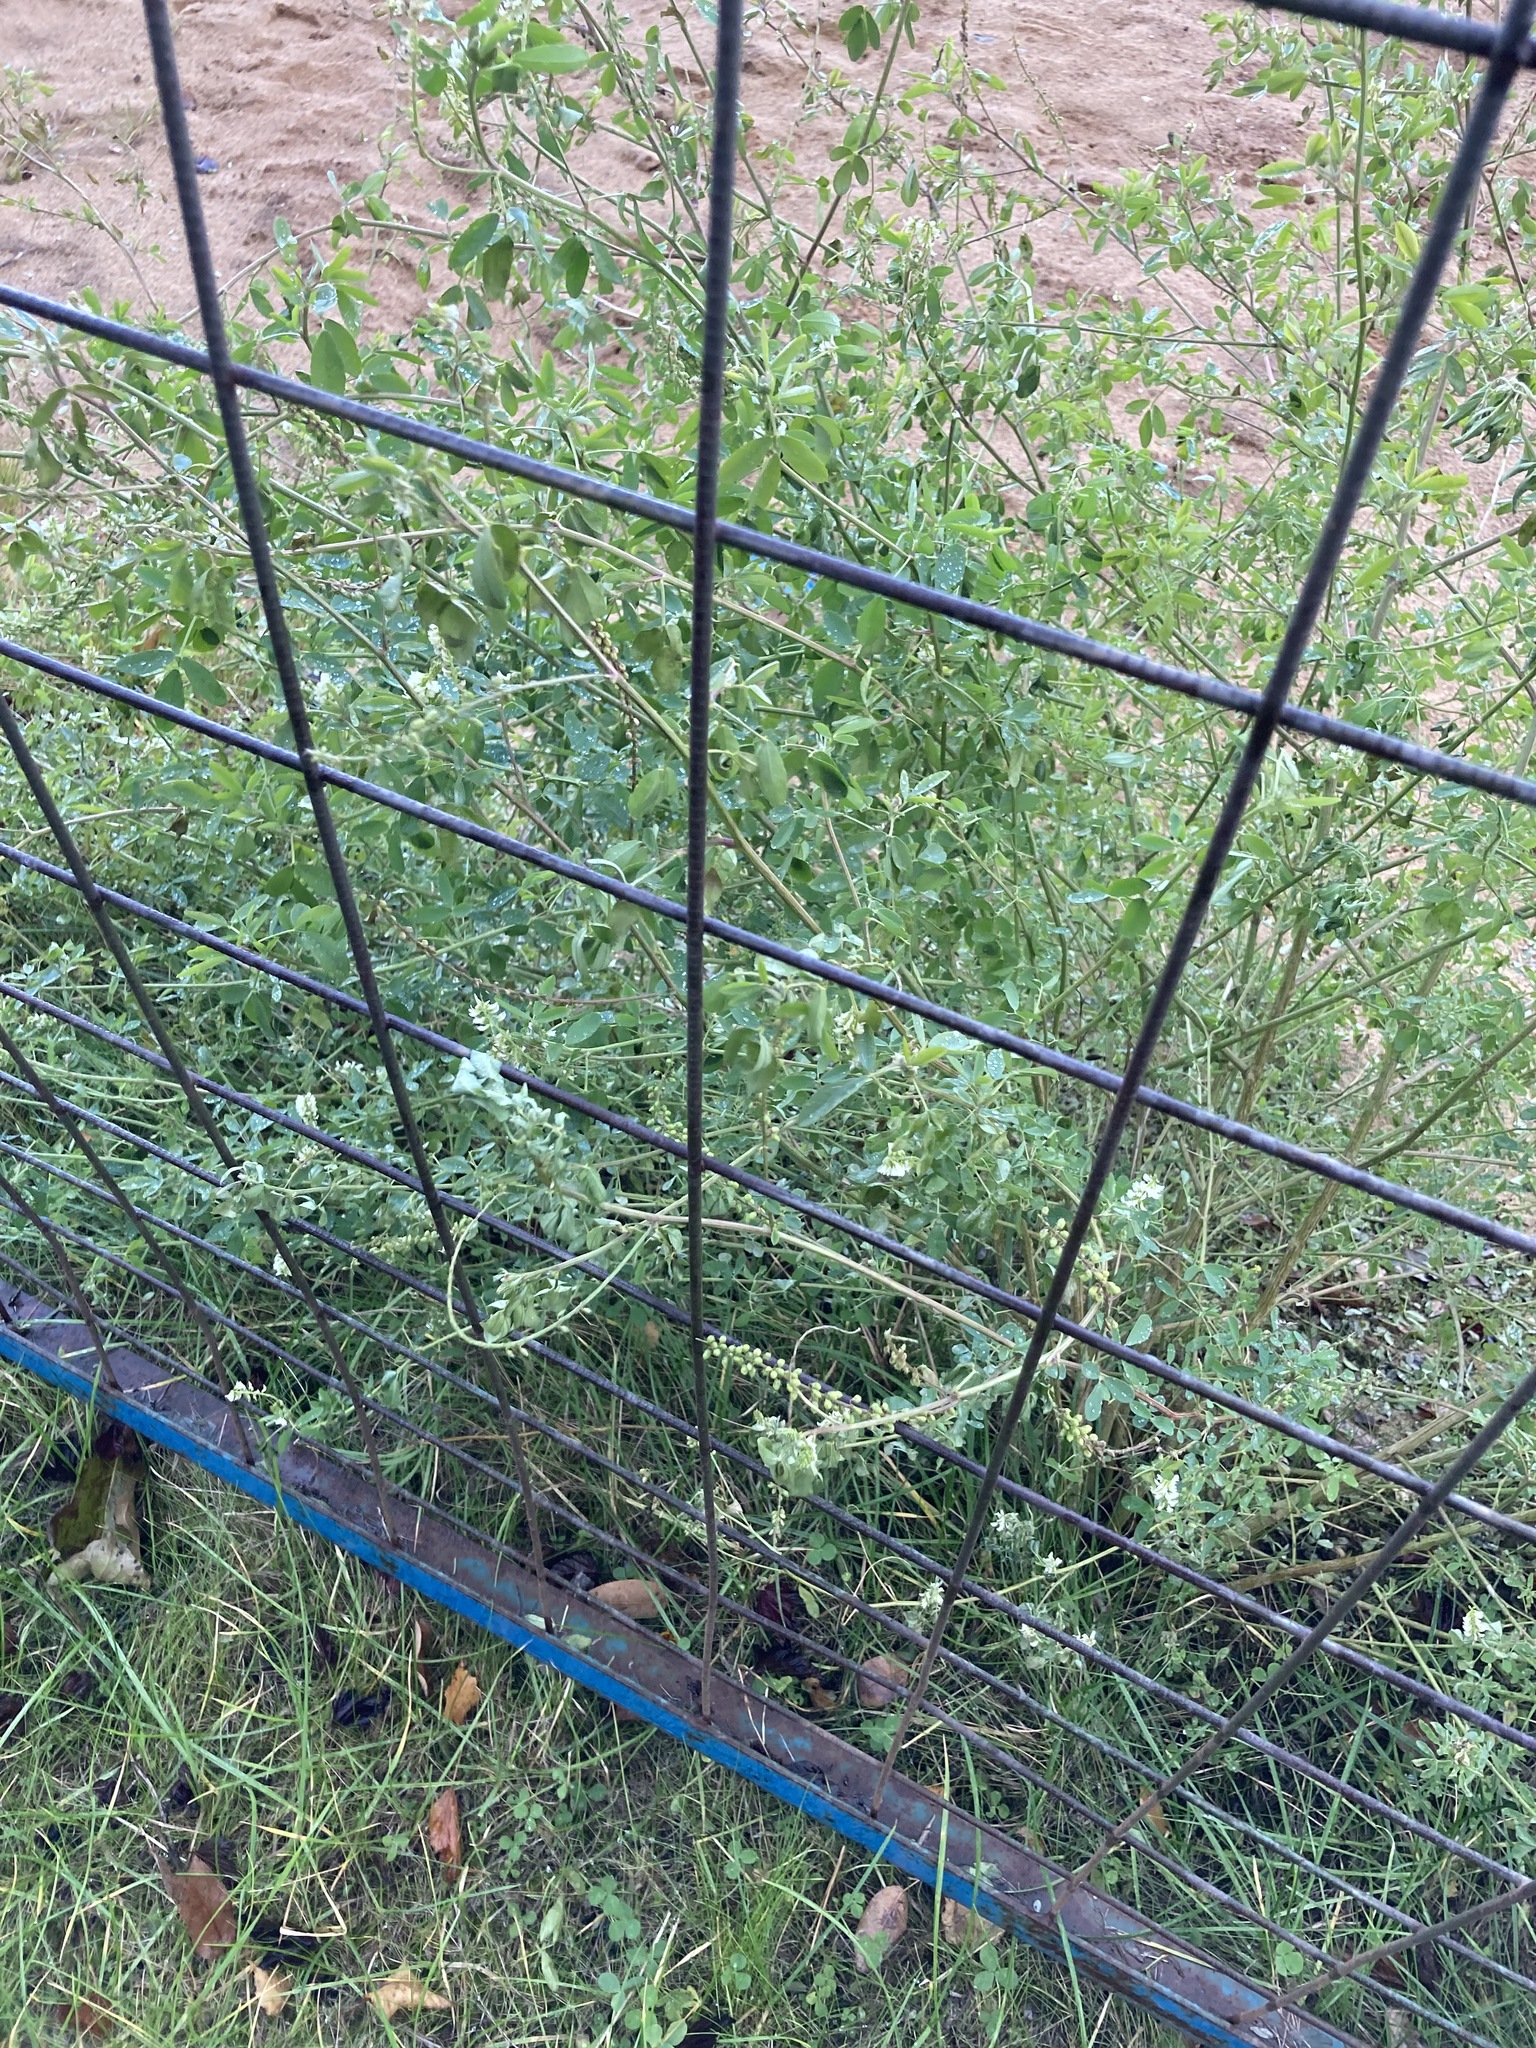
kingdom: Plantae
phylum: Tracheophyta
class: Magnoliopsida
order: Fabales
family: Fabaceae
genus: Melilotus
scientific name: Melilotus albus
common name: White melilot
